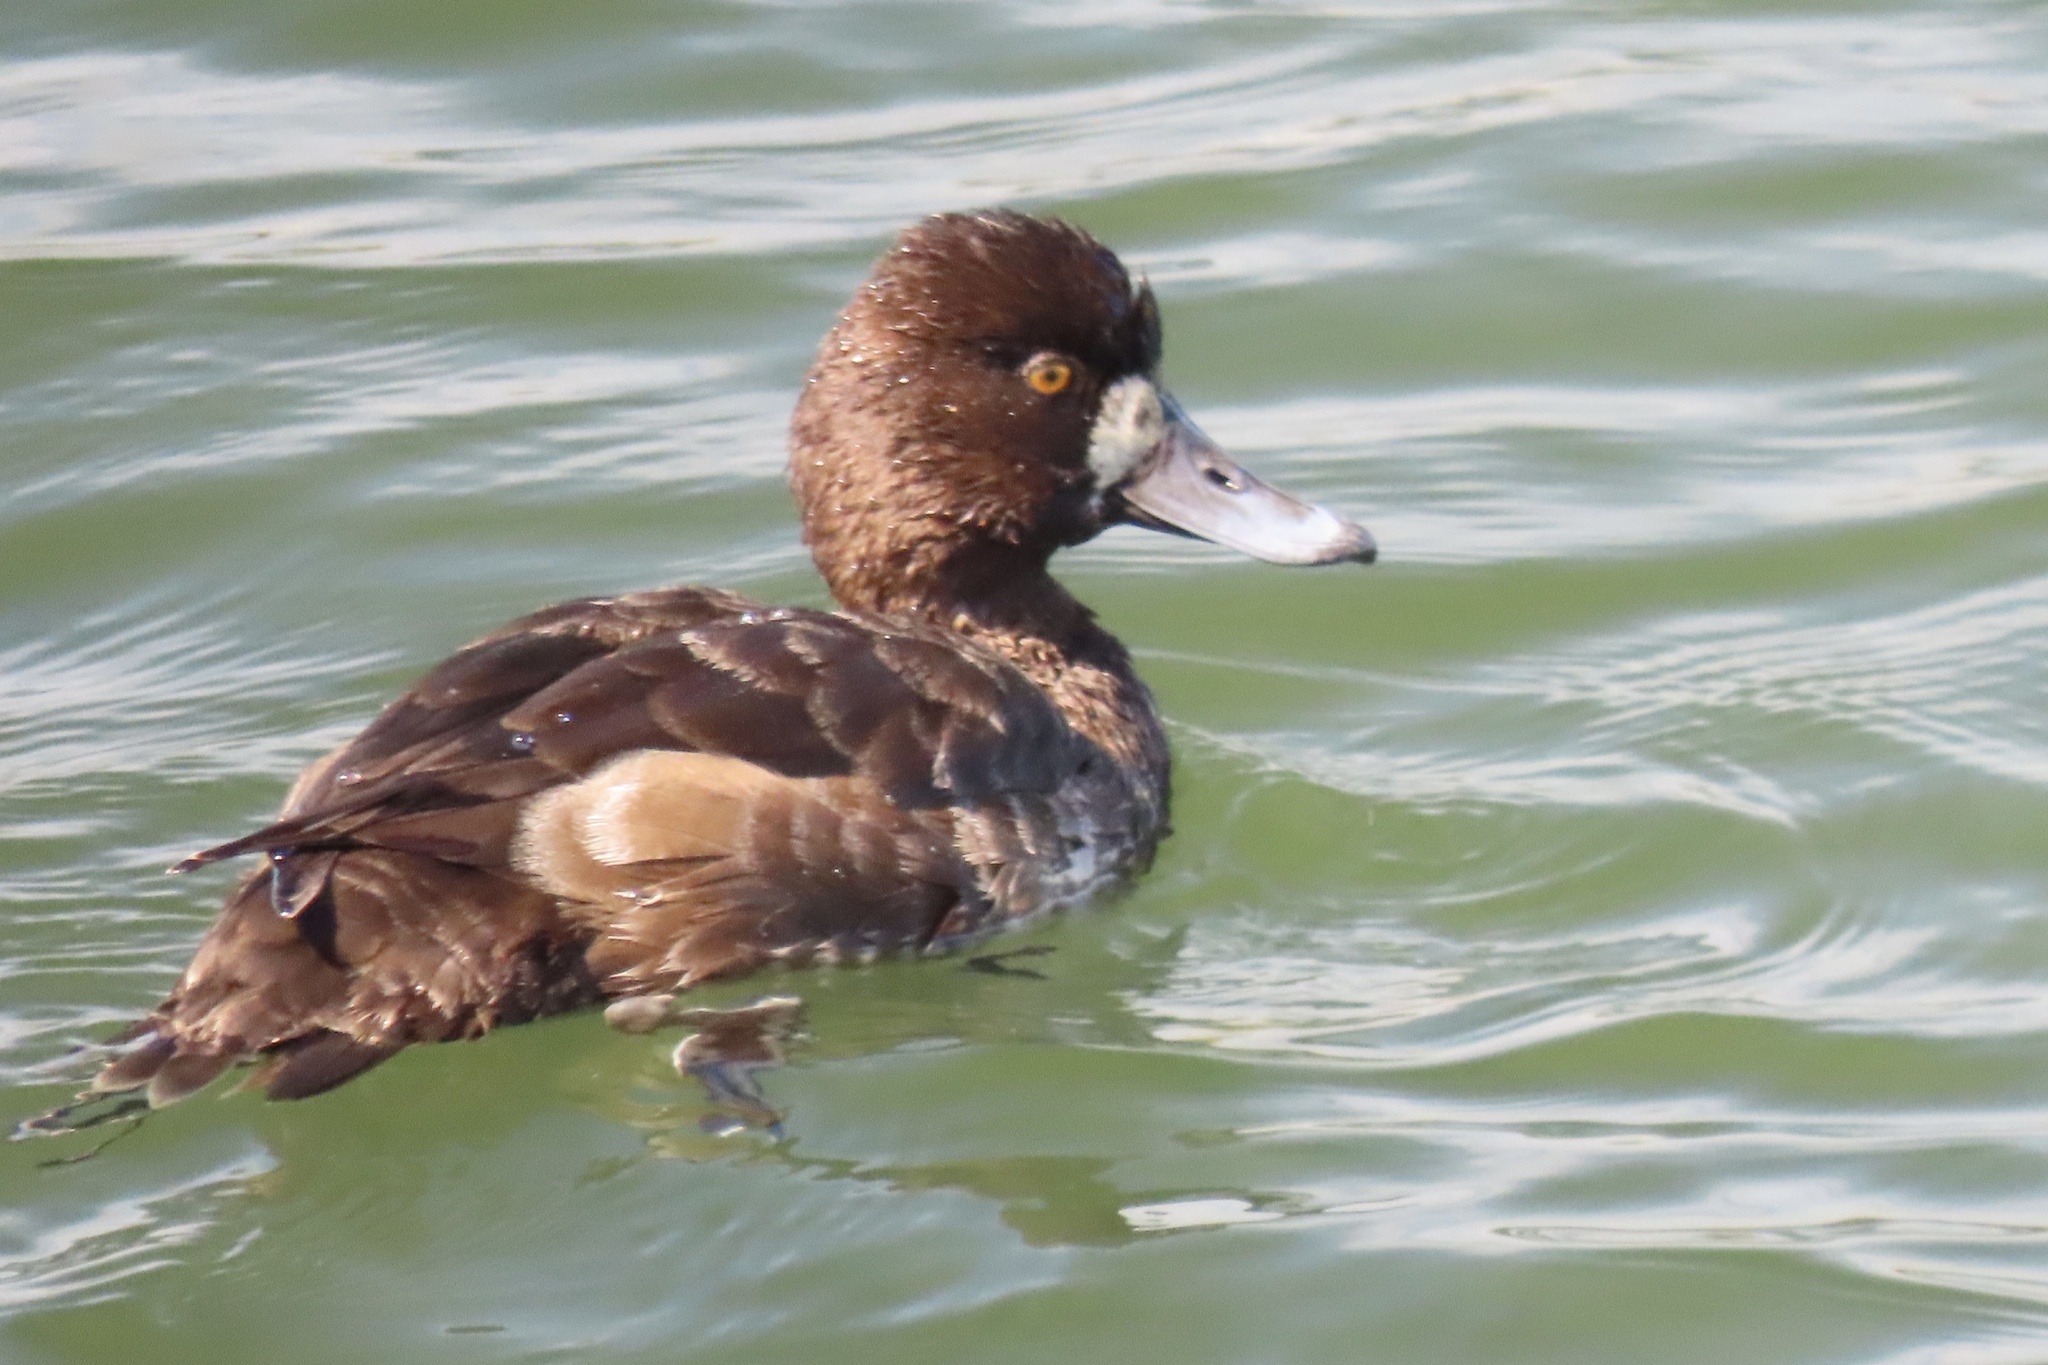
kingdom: Animalia
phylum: Chordata
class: Aves
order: Anseriformes
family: Anatidae
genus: Aythya
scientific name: Aythya affinis
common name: Lesser scaup
